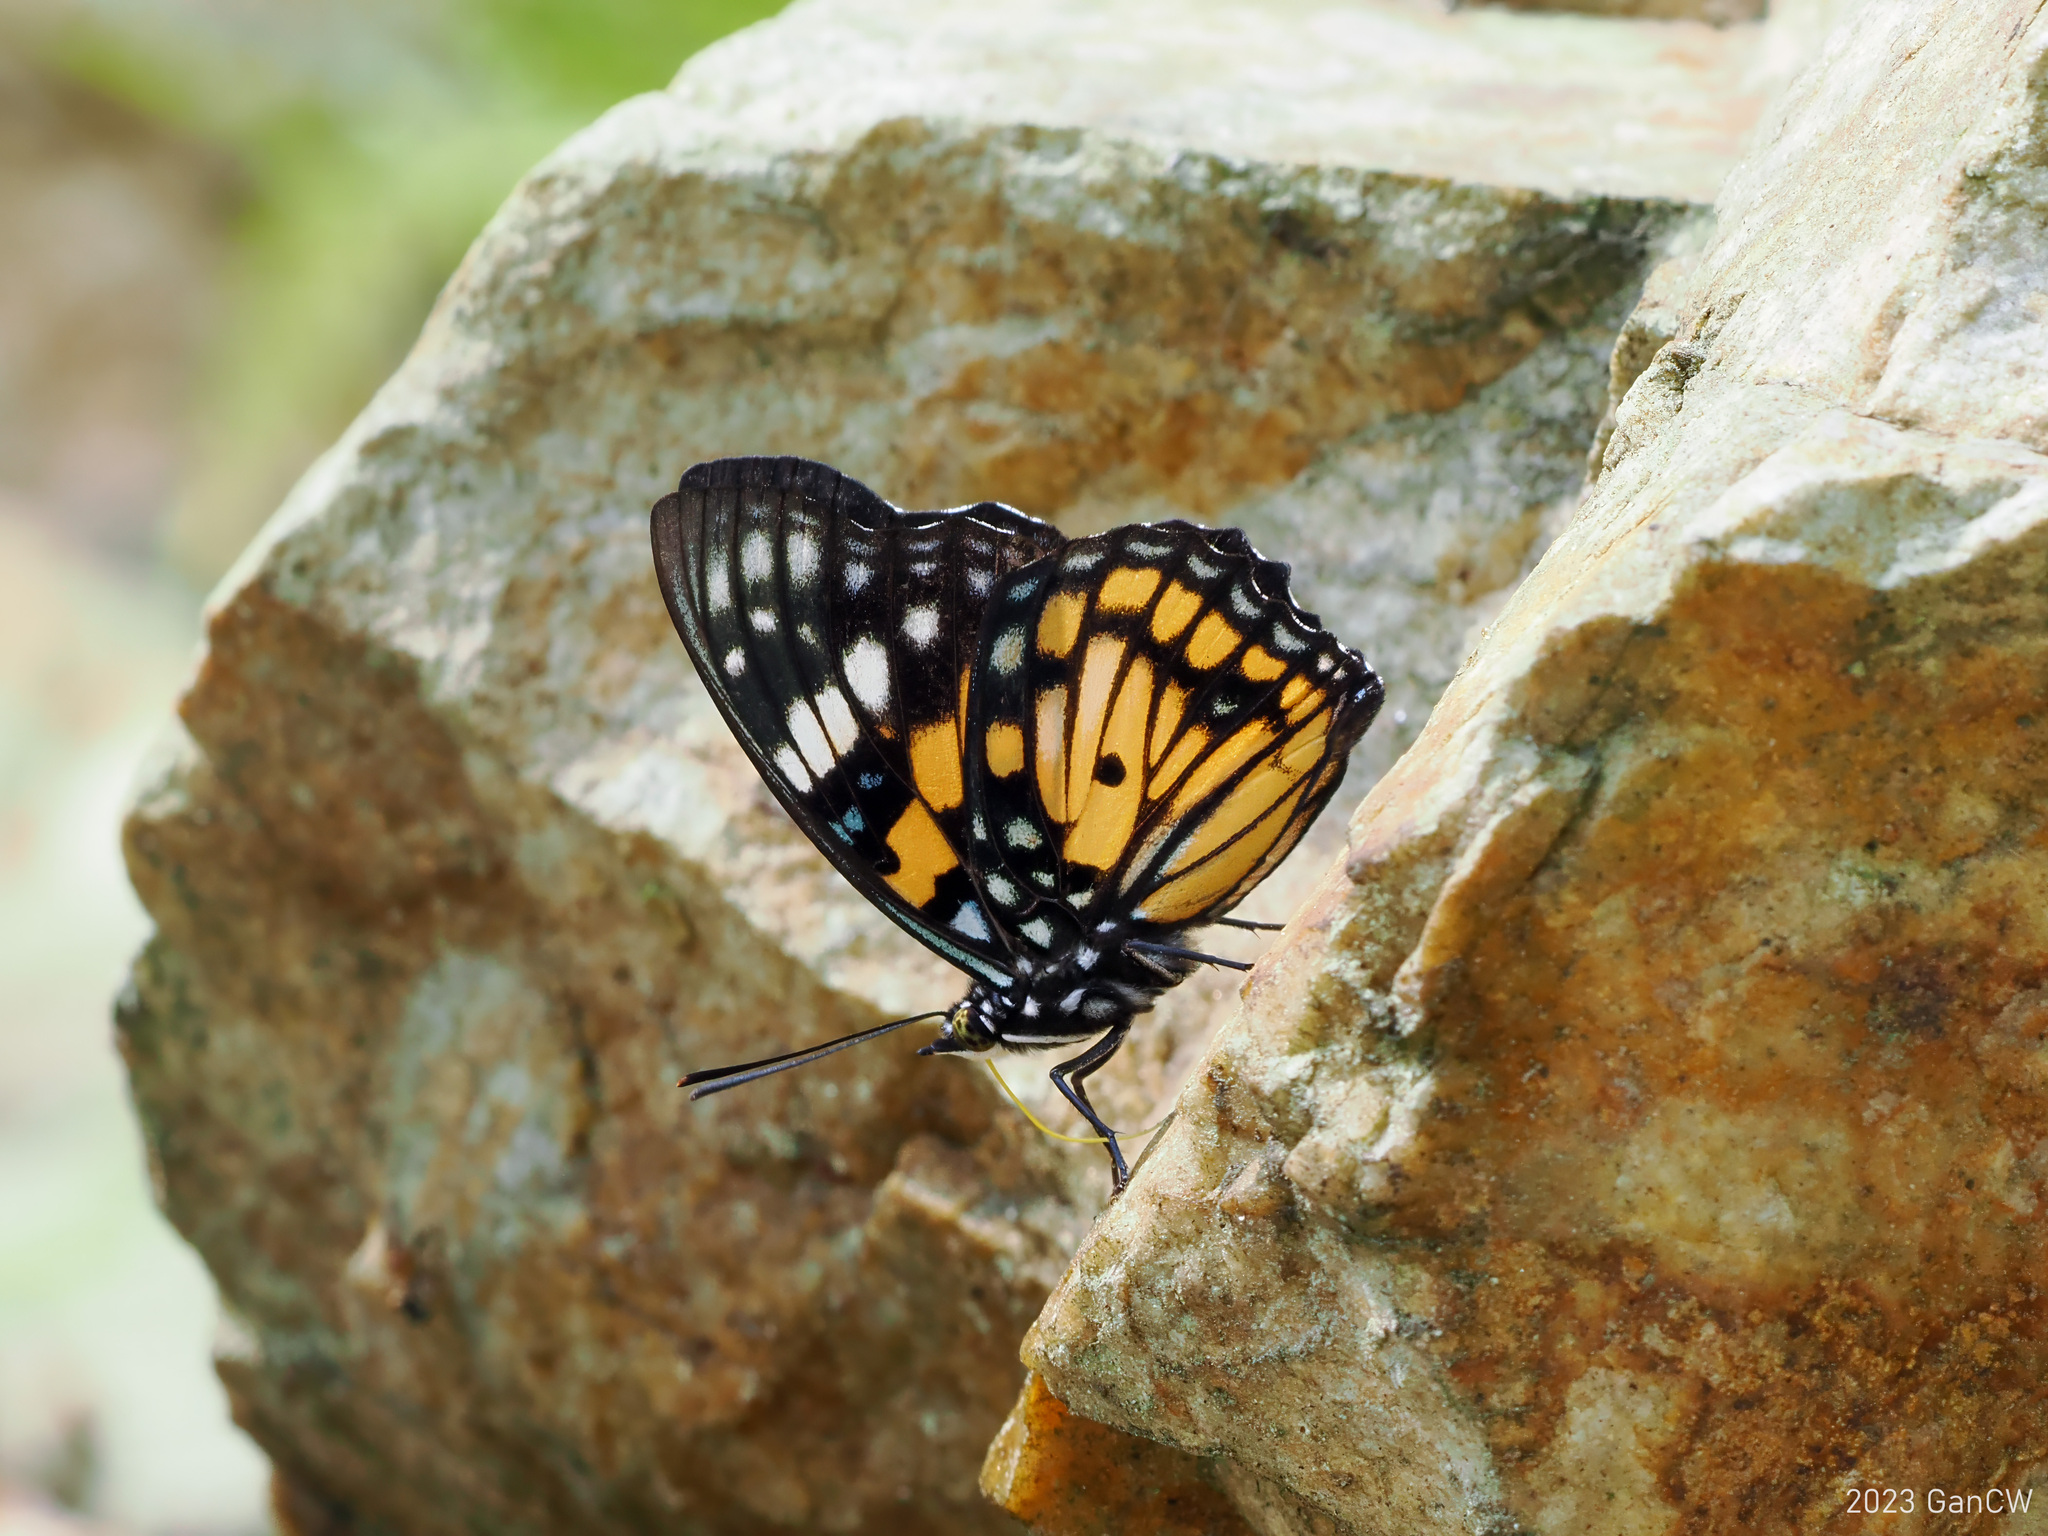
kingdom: Animalia
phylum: Arthropoda
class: Insecta
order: Lepidoptera
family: Nymphalidae
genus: Sephisa
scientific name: Sephisa chandra
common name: Eastern courtier
